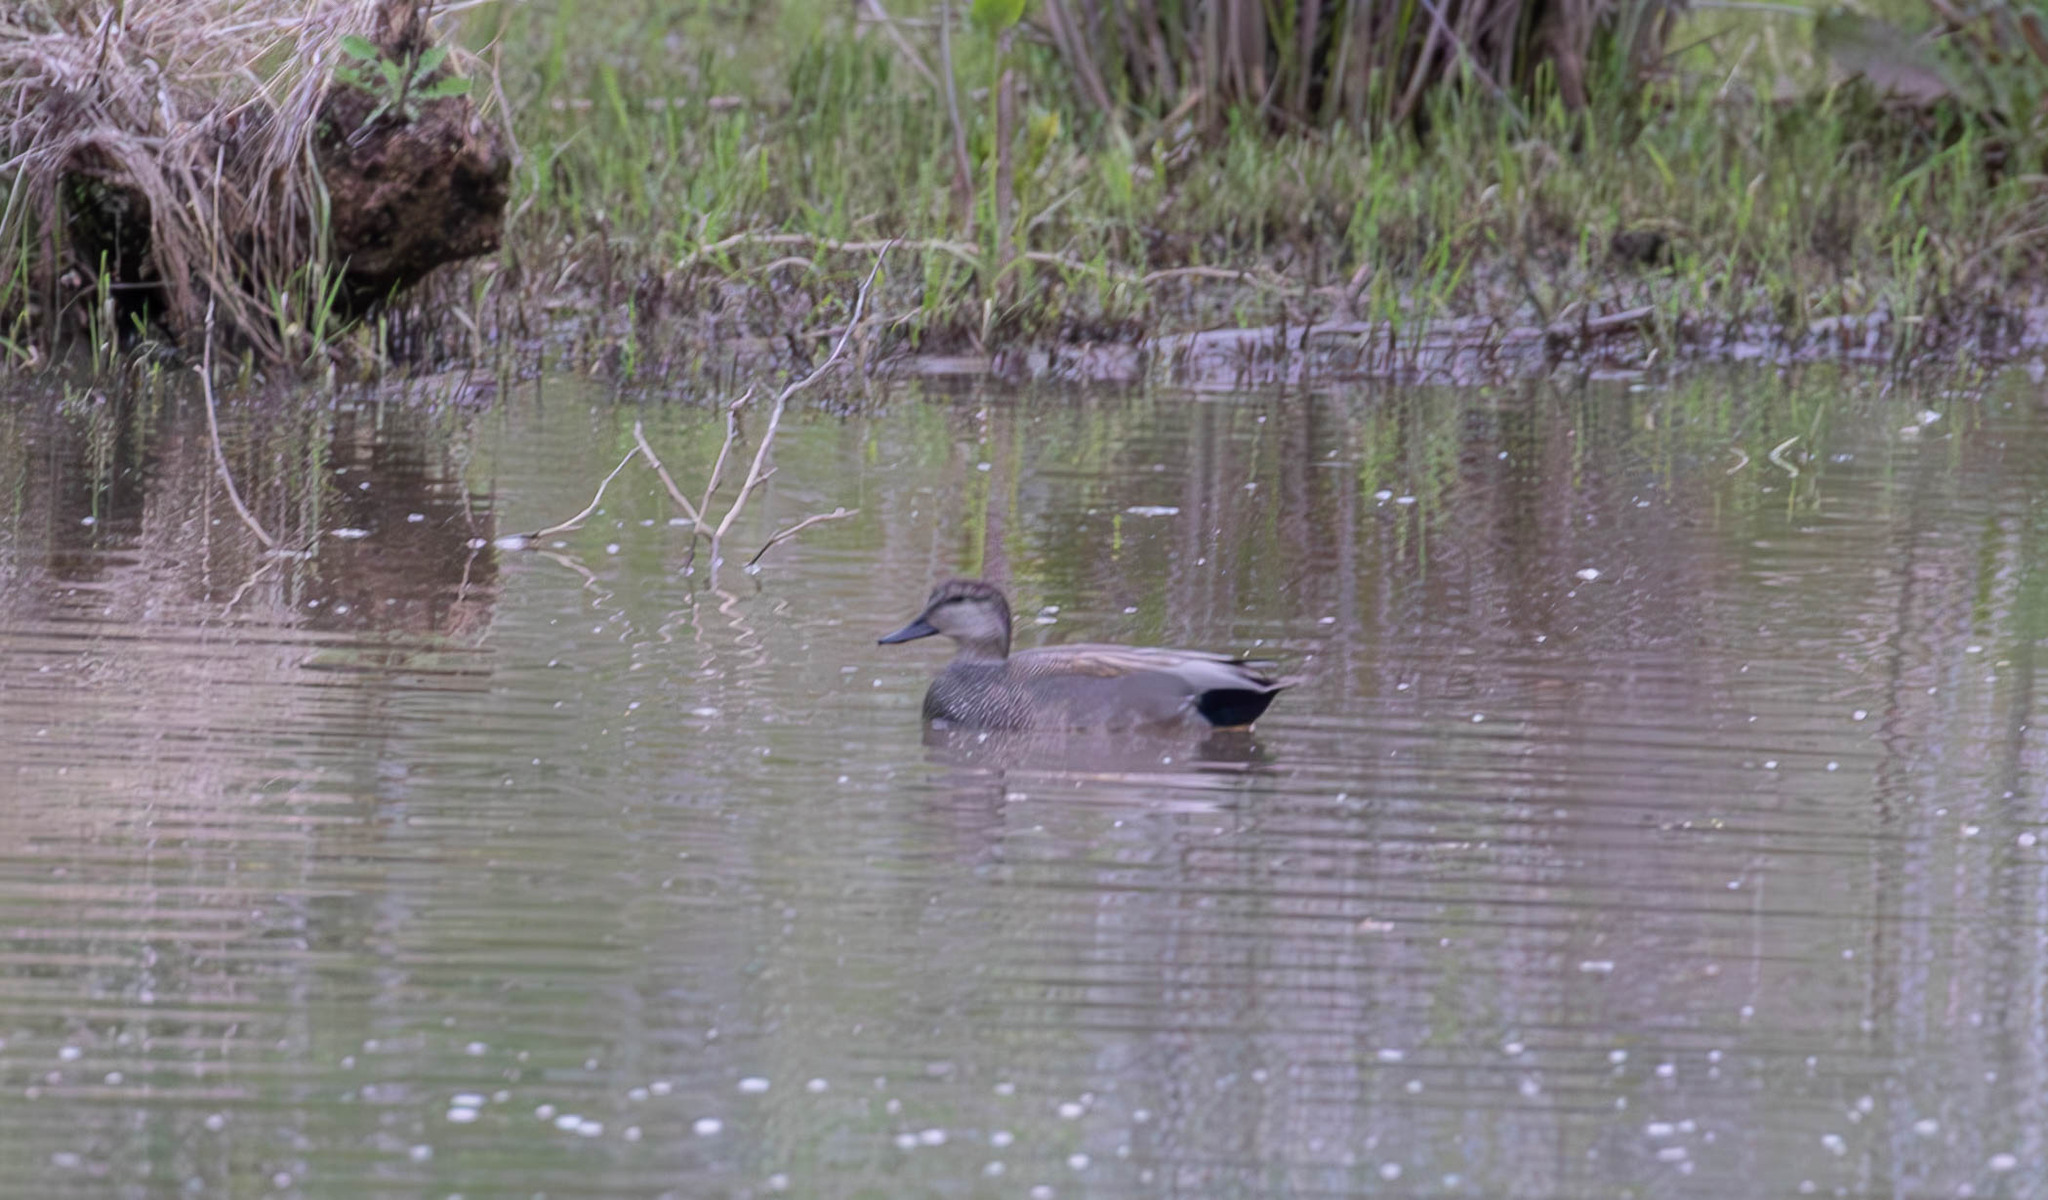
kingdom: Animalia
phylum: Chordata
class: Aves
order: Anseriformes
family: Anatidae
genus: Mareca
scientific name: Mareca strepera
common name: Gadwall
